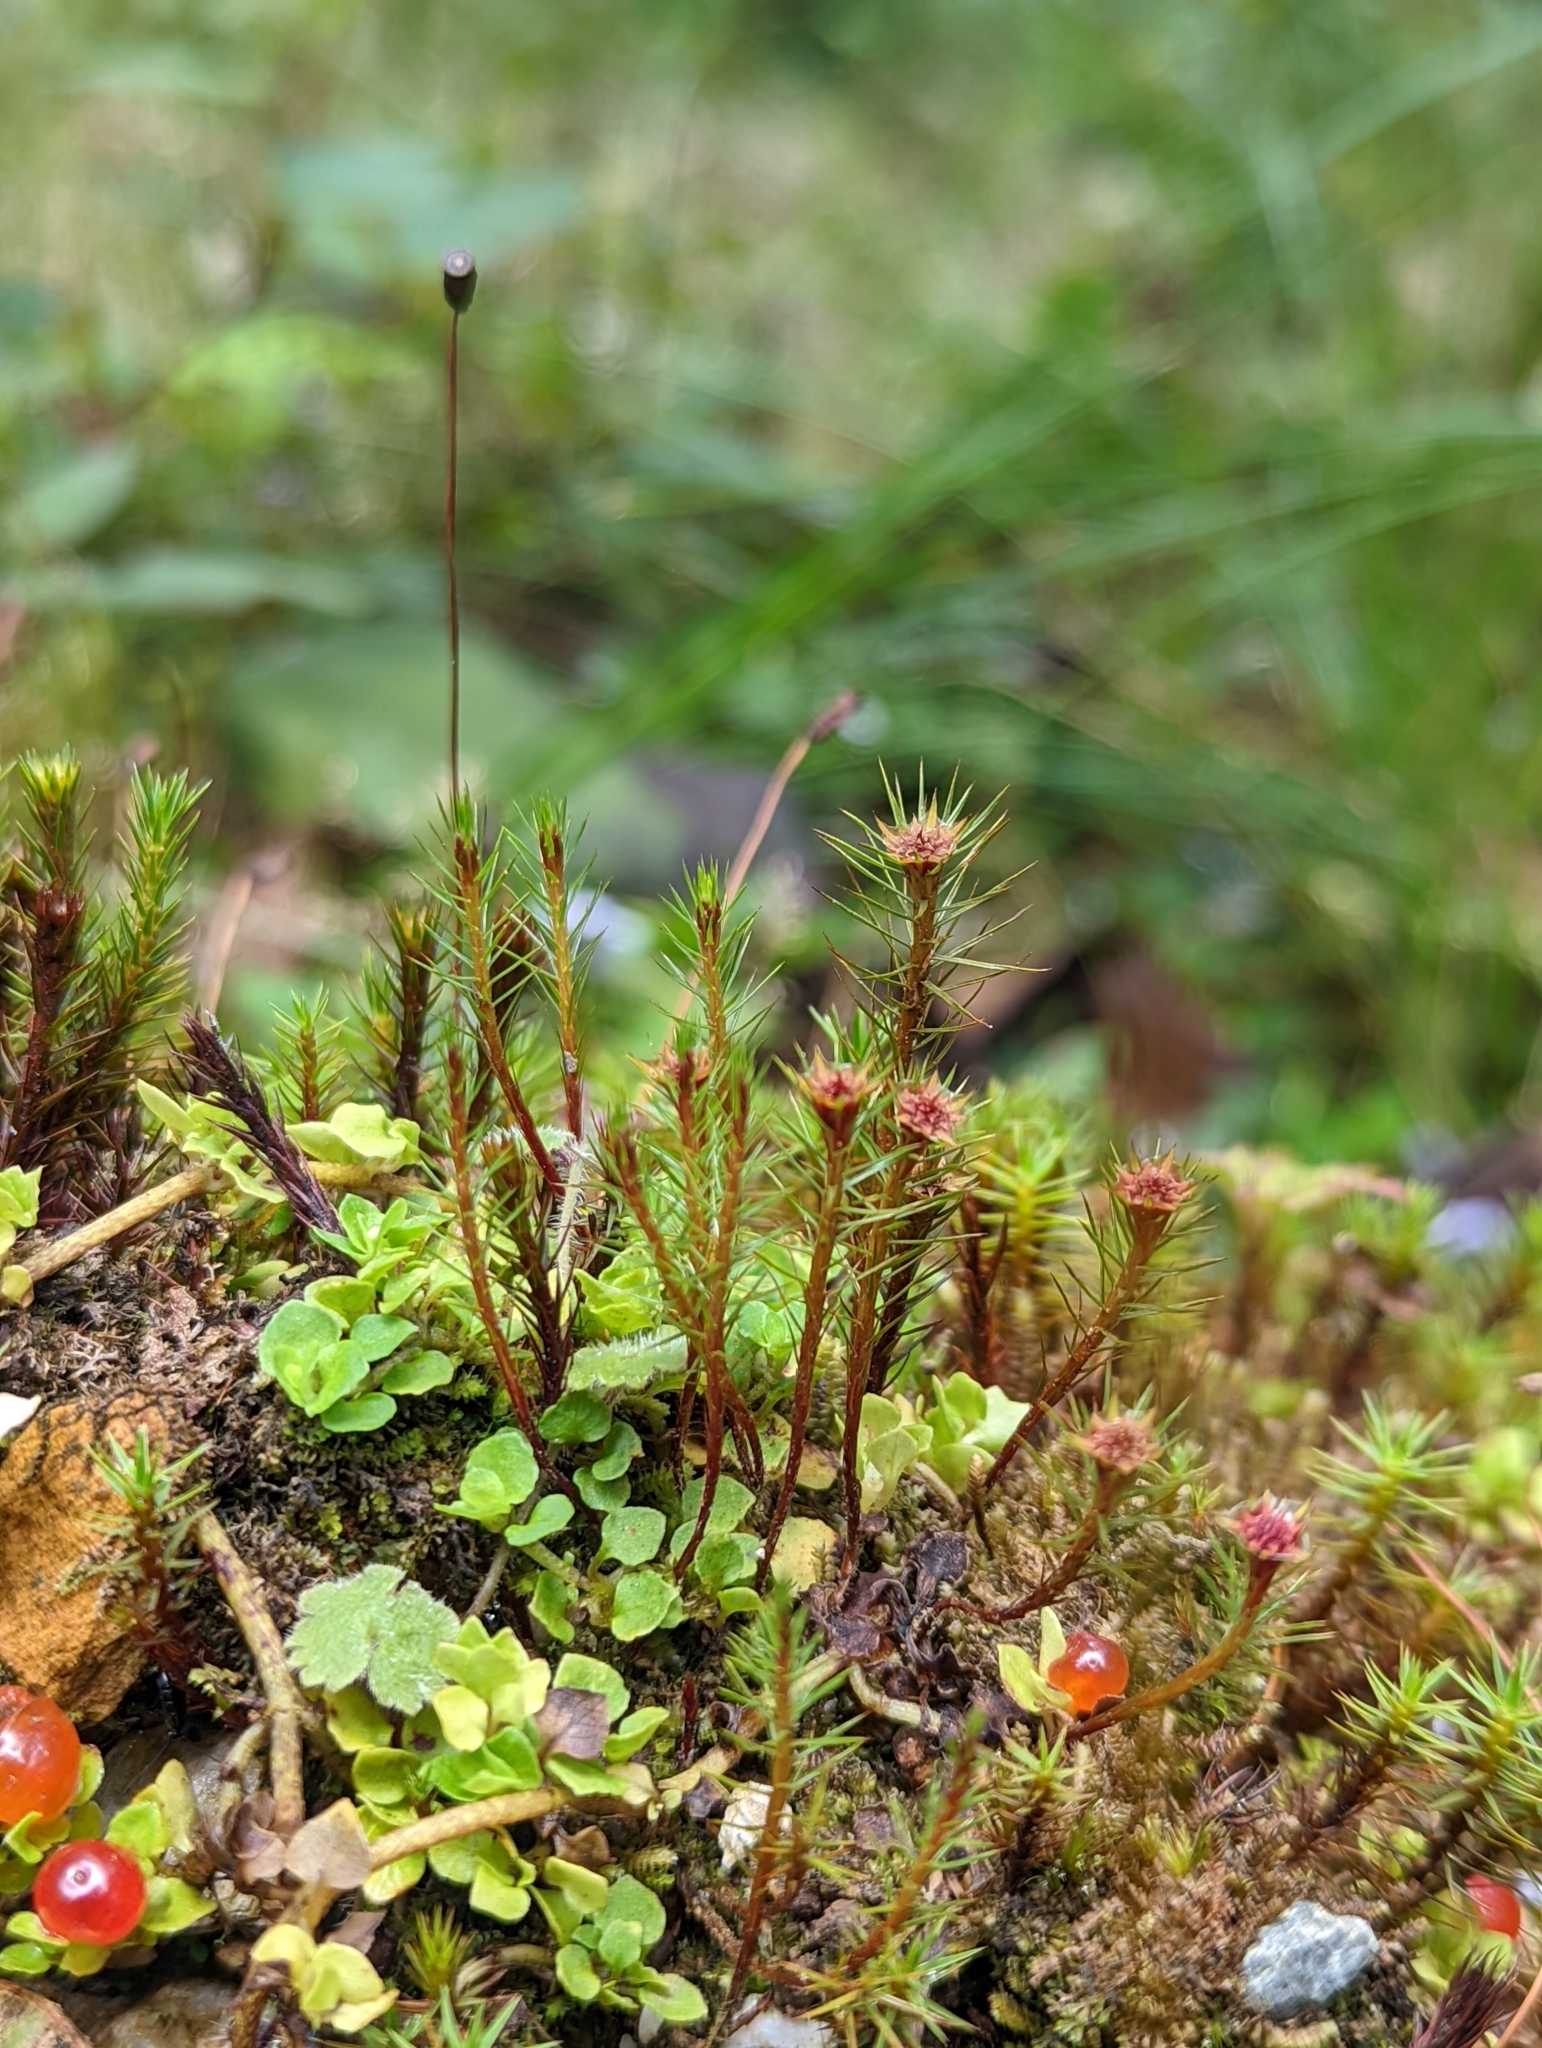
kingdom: Plantae
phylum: Bryophyta
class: Polytrichopsida
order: Polytrichales
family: Polytrichaceae
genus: Polytrichum
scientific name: Polytrichum commune
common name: Common haircap
